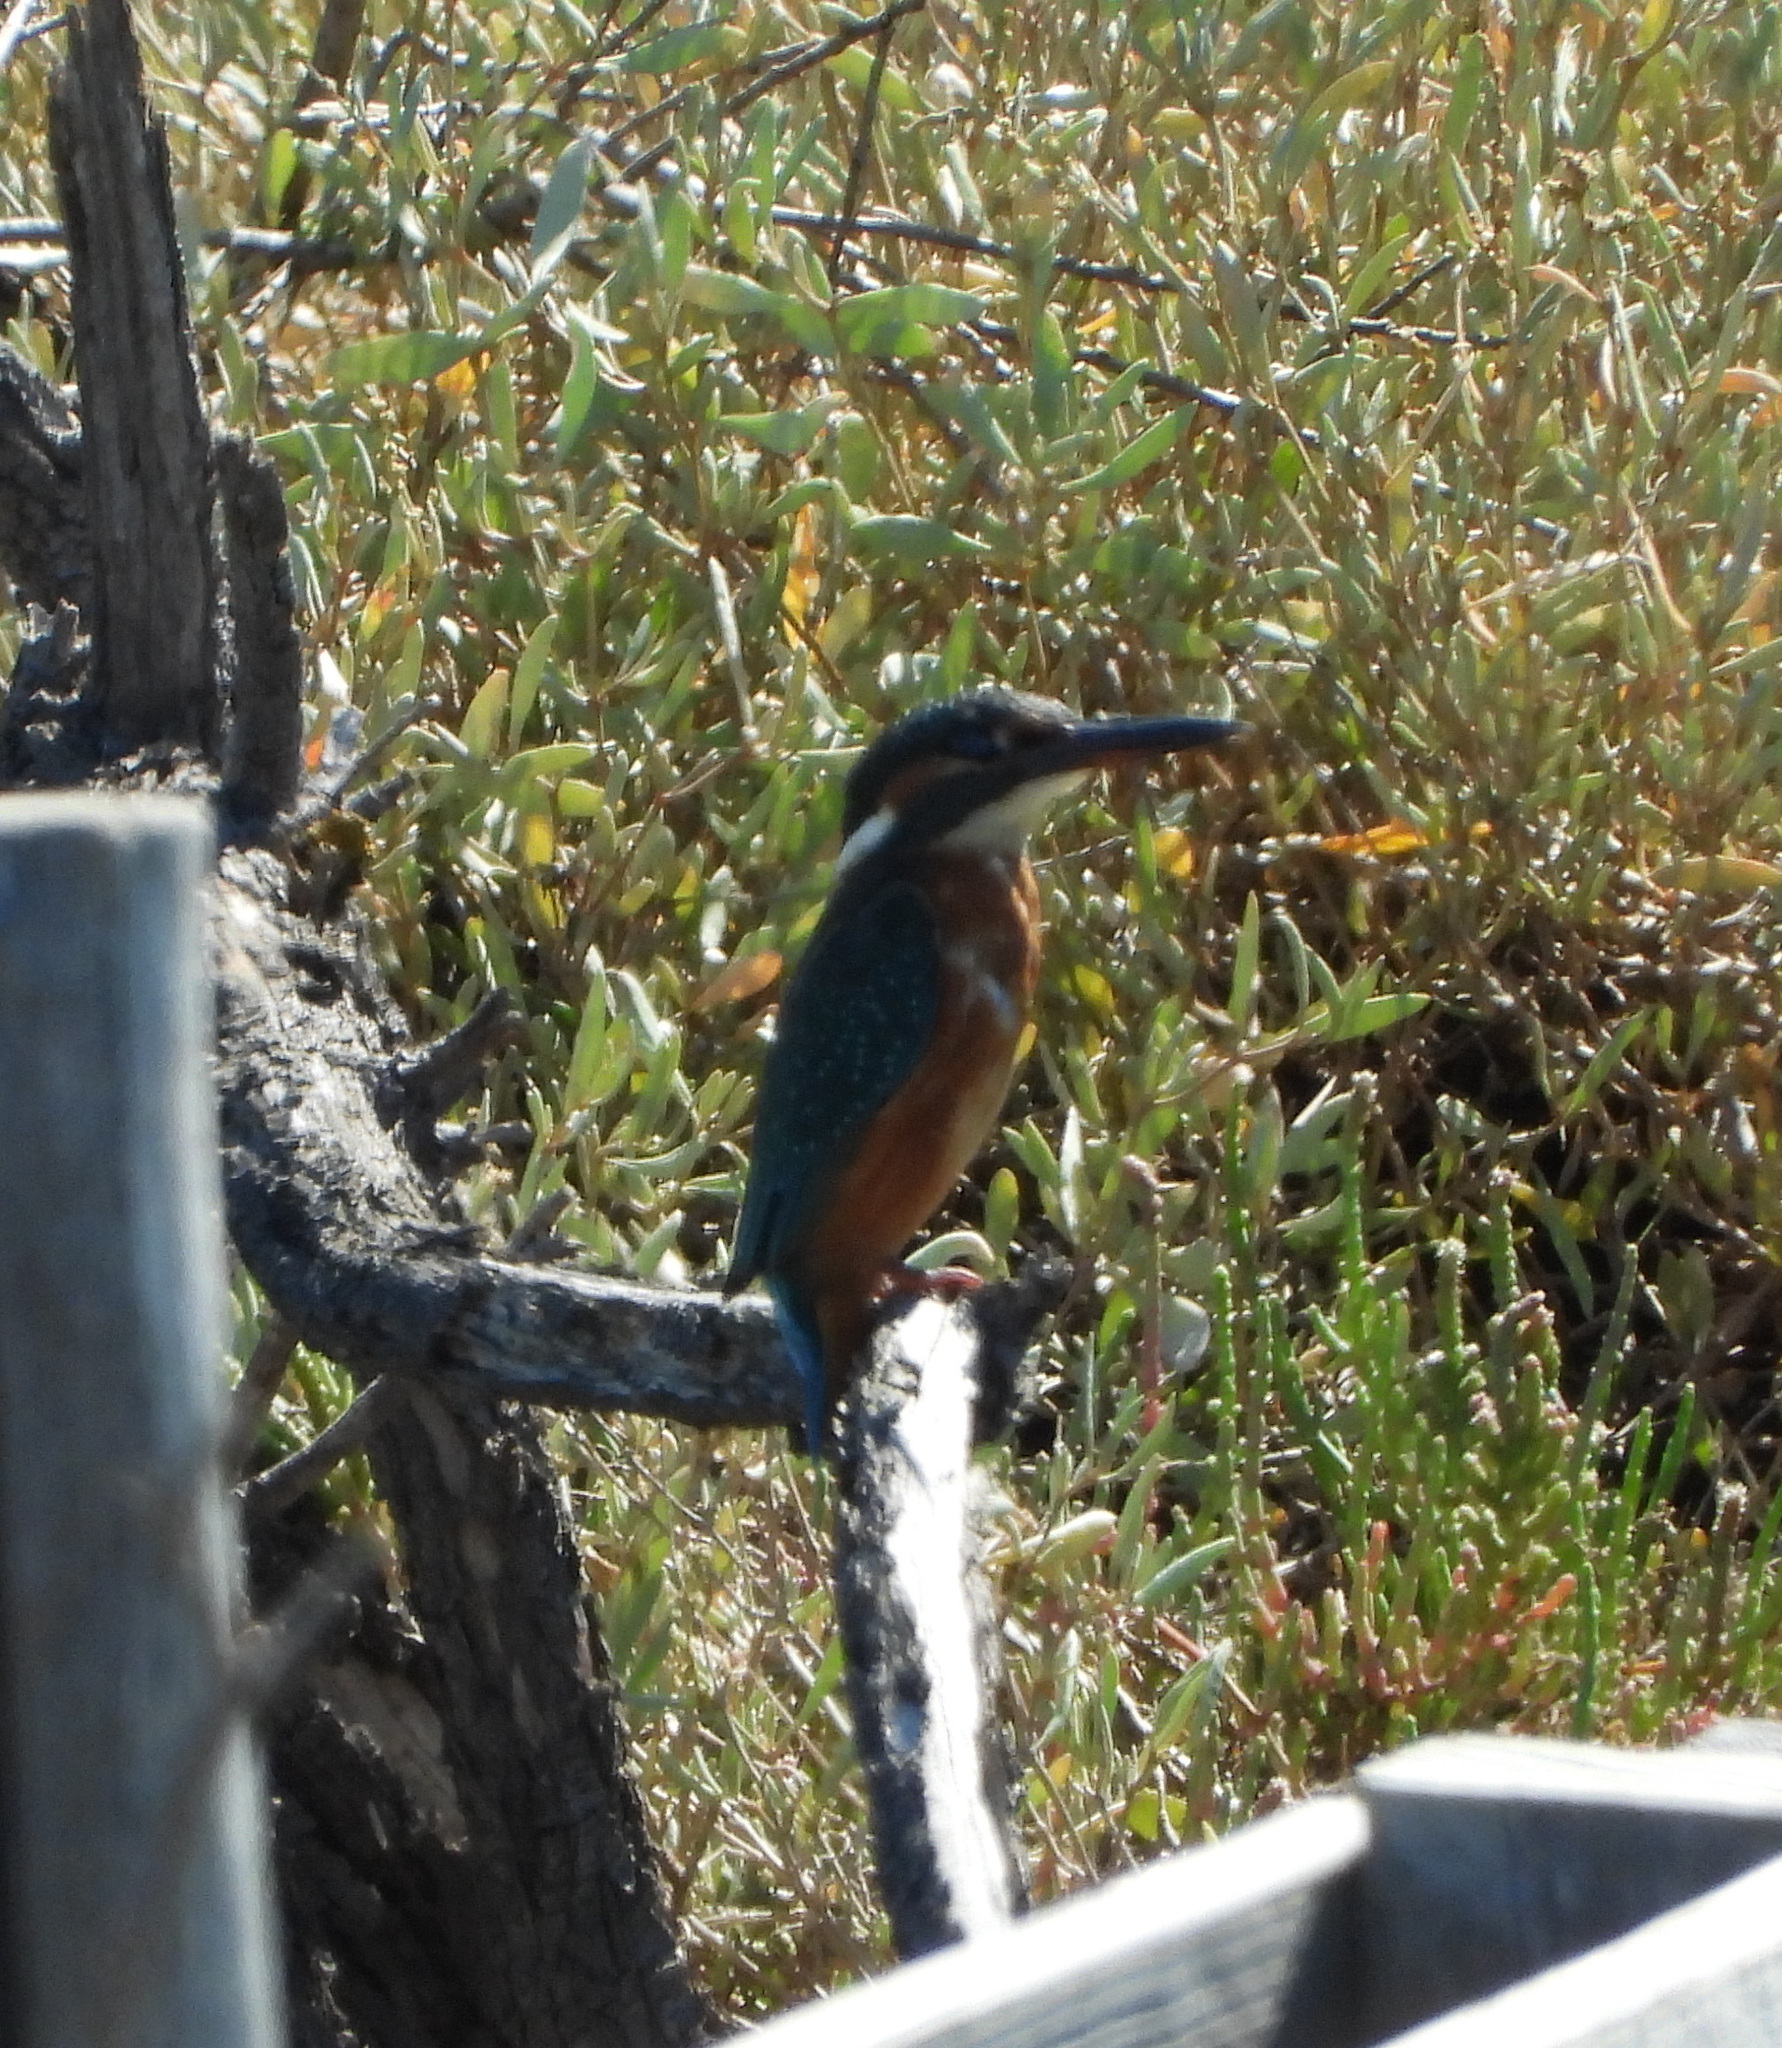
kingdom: Animalia
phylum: Chordata
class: Aves
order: Coraciiformes
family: Alcedinidae
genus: Alcedo
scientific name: Alcedo atthis
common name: Common kingfisher
